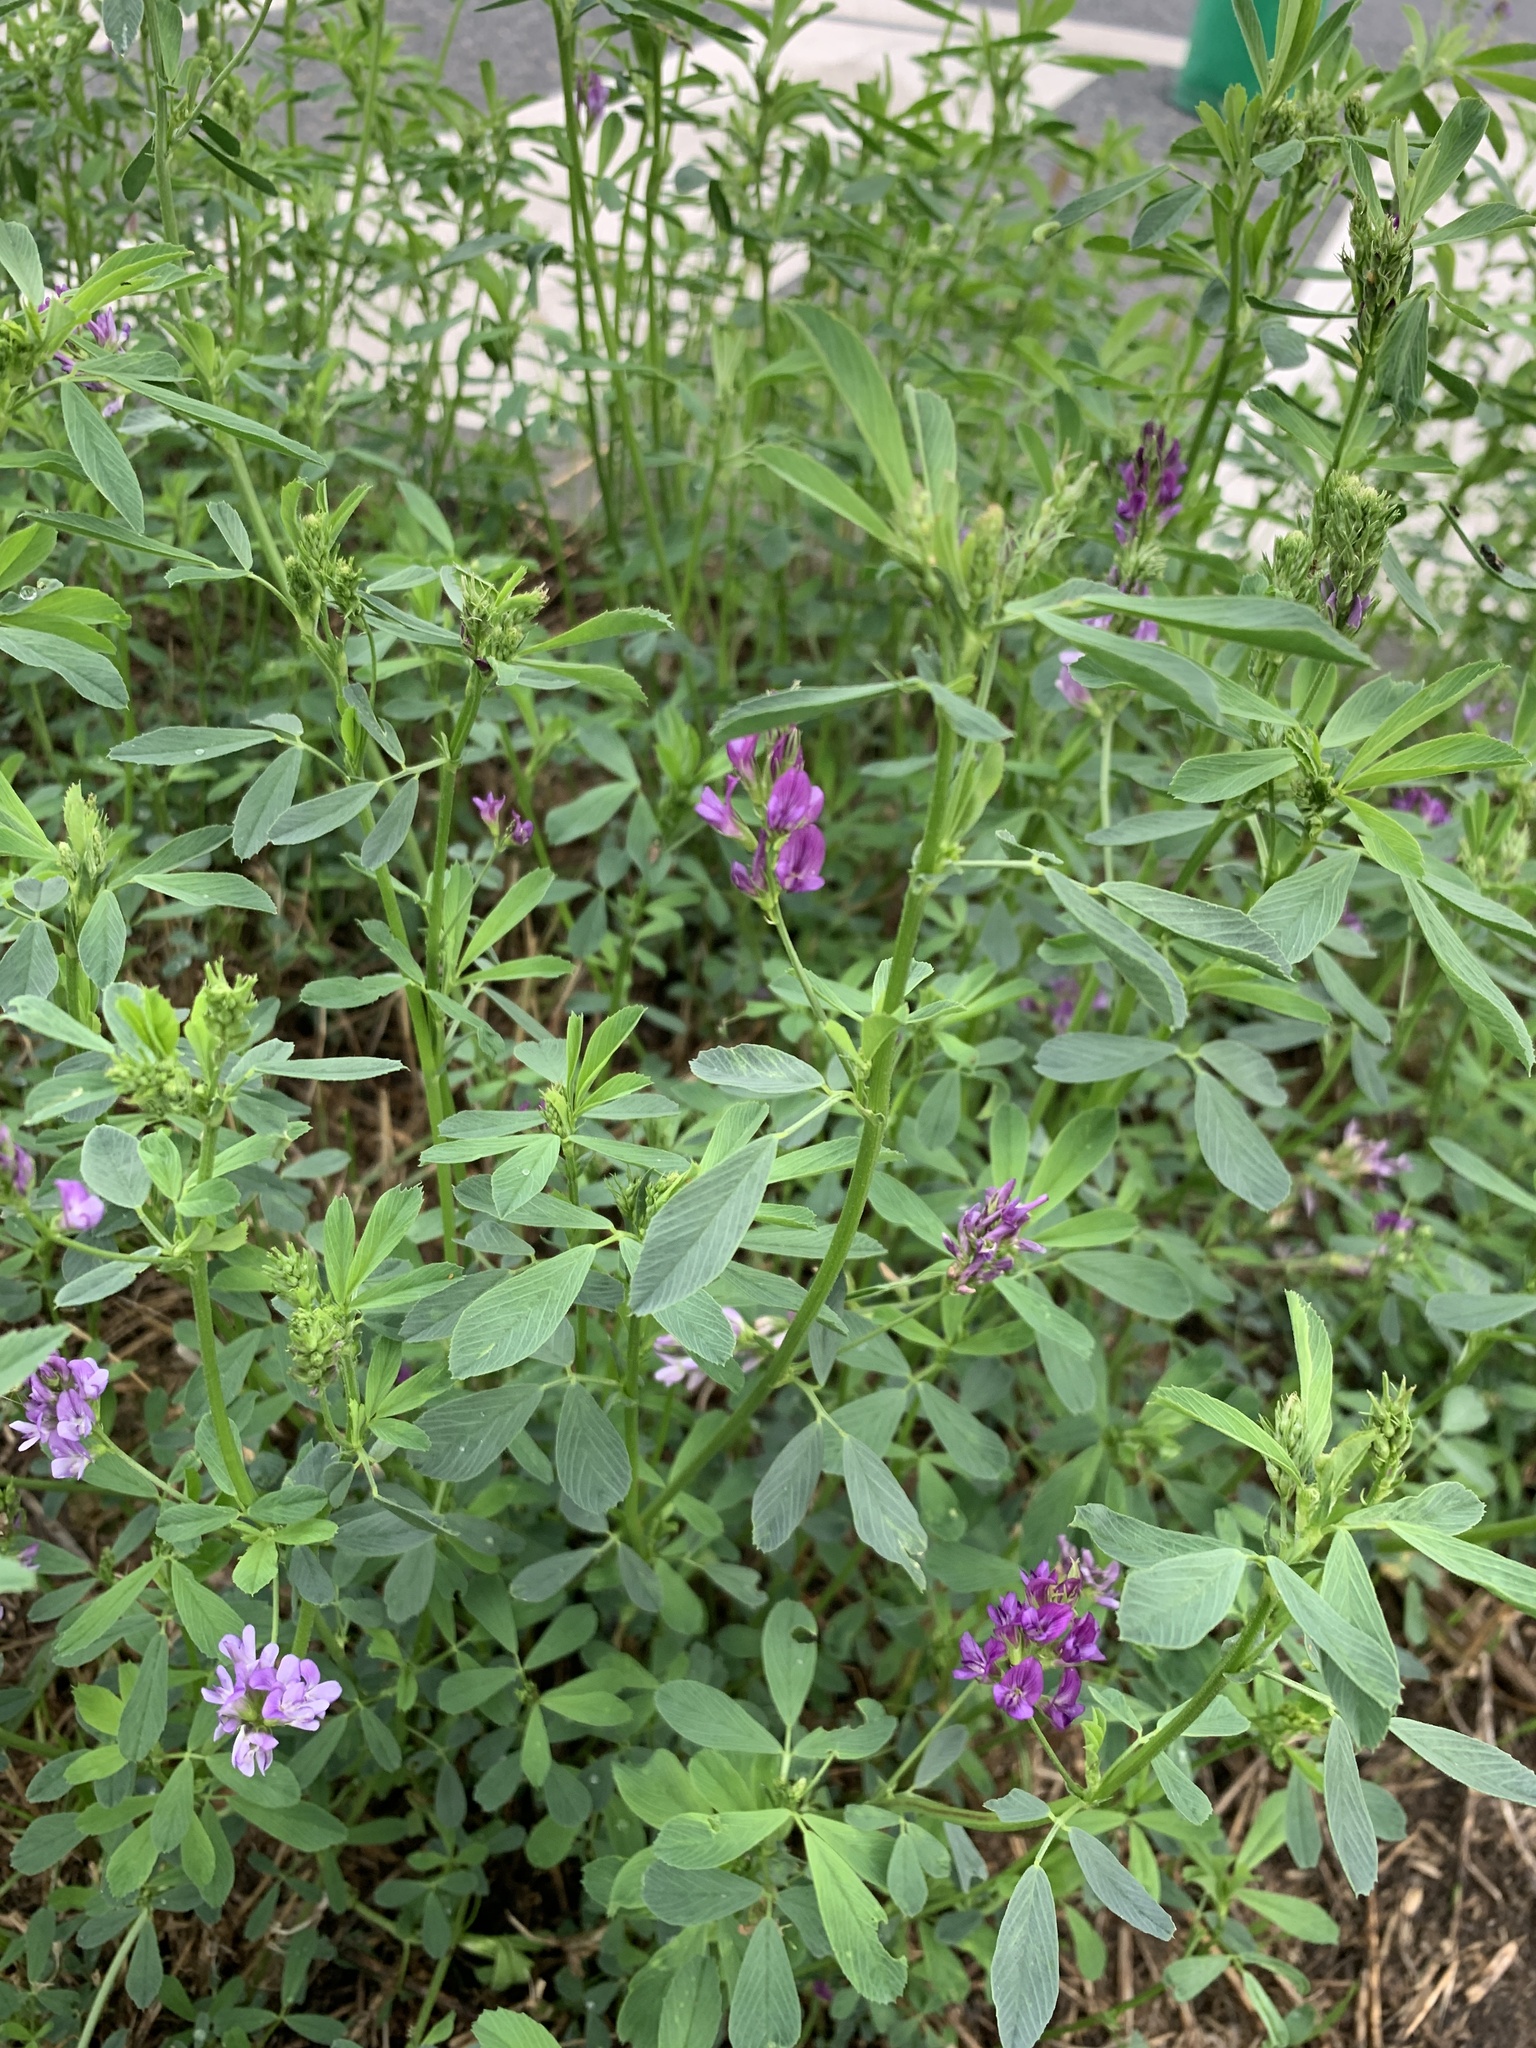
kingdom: Plantae
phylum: Tracheophyta
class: Magnoliopsida
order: Fabales
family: Fabaceae
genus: Medicago
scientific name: Medicago sativa
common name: Alfalfa
